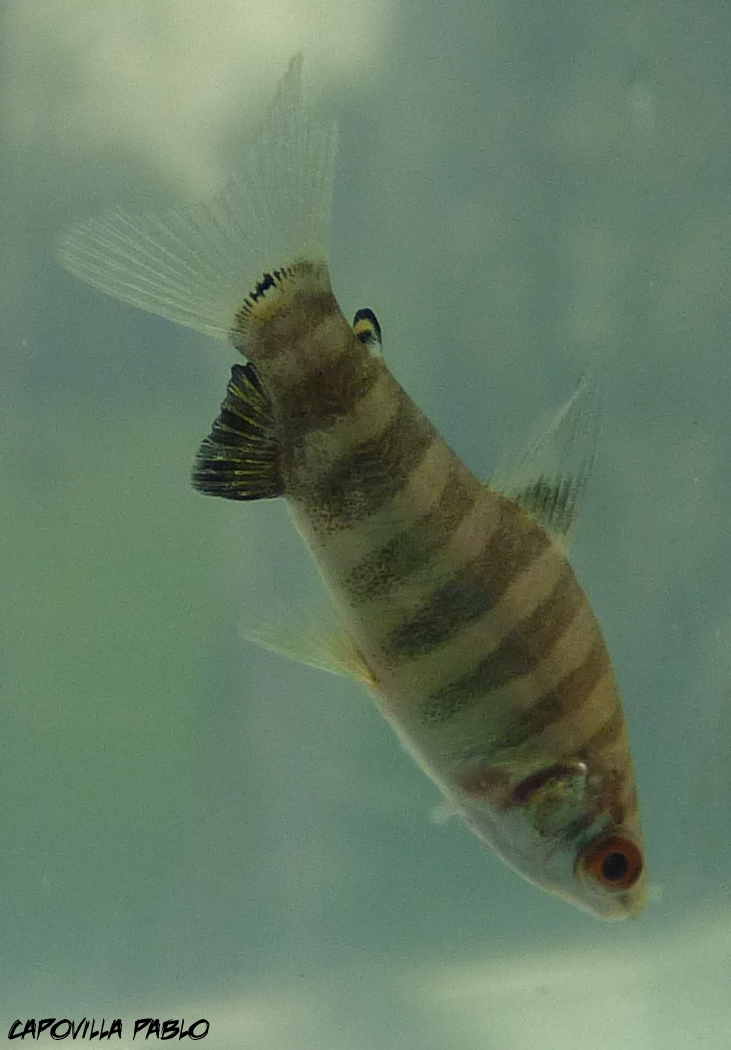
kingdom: Animalia
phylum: Chordata
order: Characiformes
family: Anostomidae
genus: Leporinus
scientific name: Leporinus obtusidens
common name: Characin
